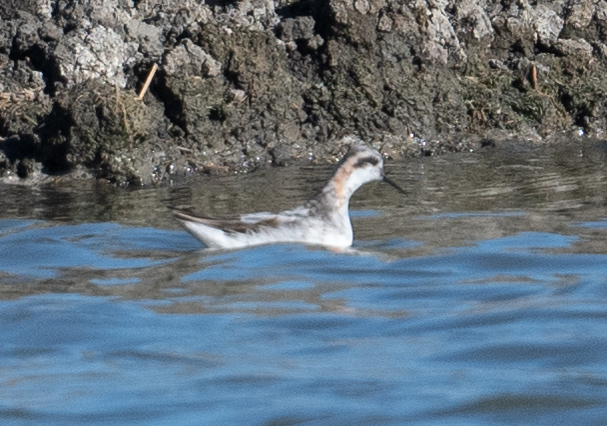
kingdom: Animalia
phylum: Chordata
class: Aves
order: Charadriiformes
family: Scolopacidae
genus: Phalaropus
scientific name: Phalaropus lobatus
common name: Red-necked phalarope
